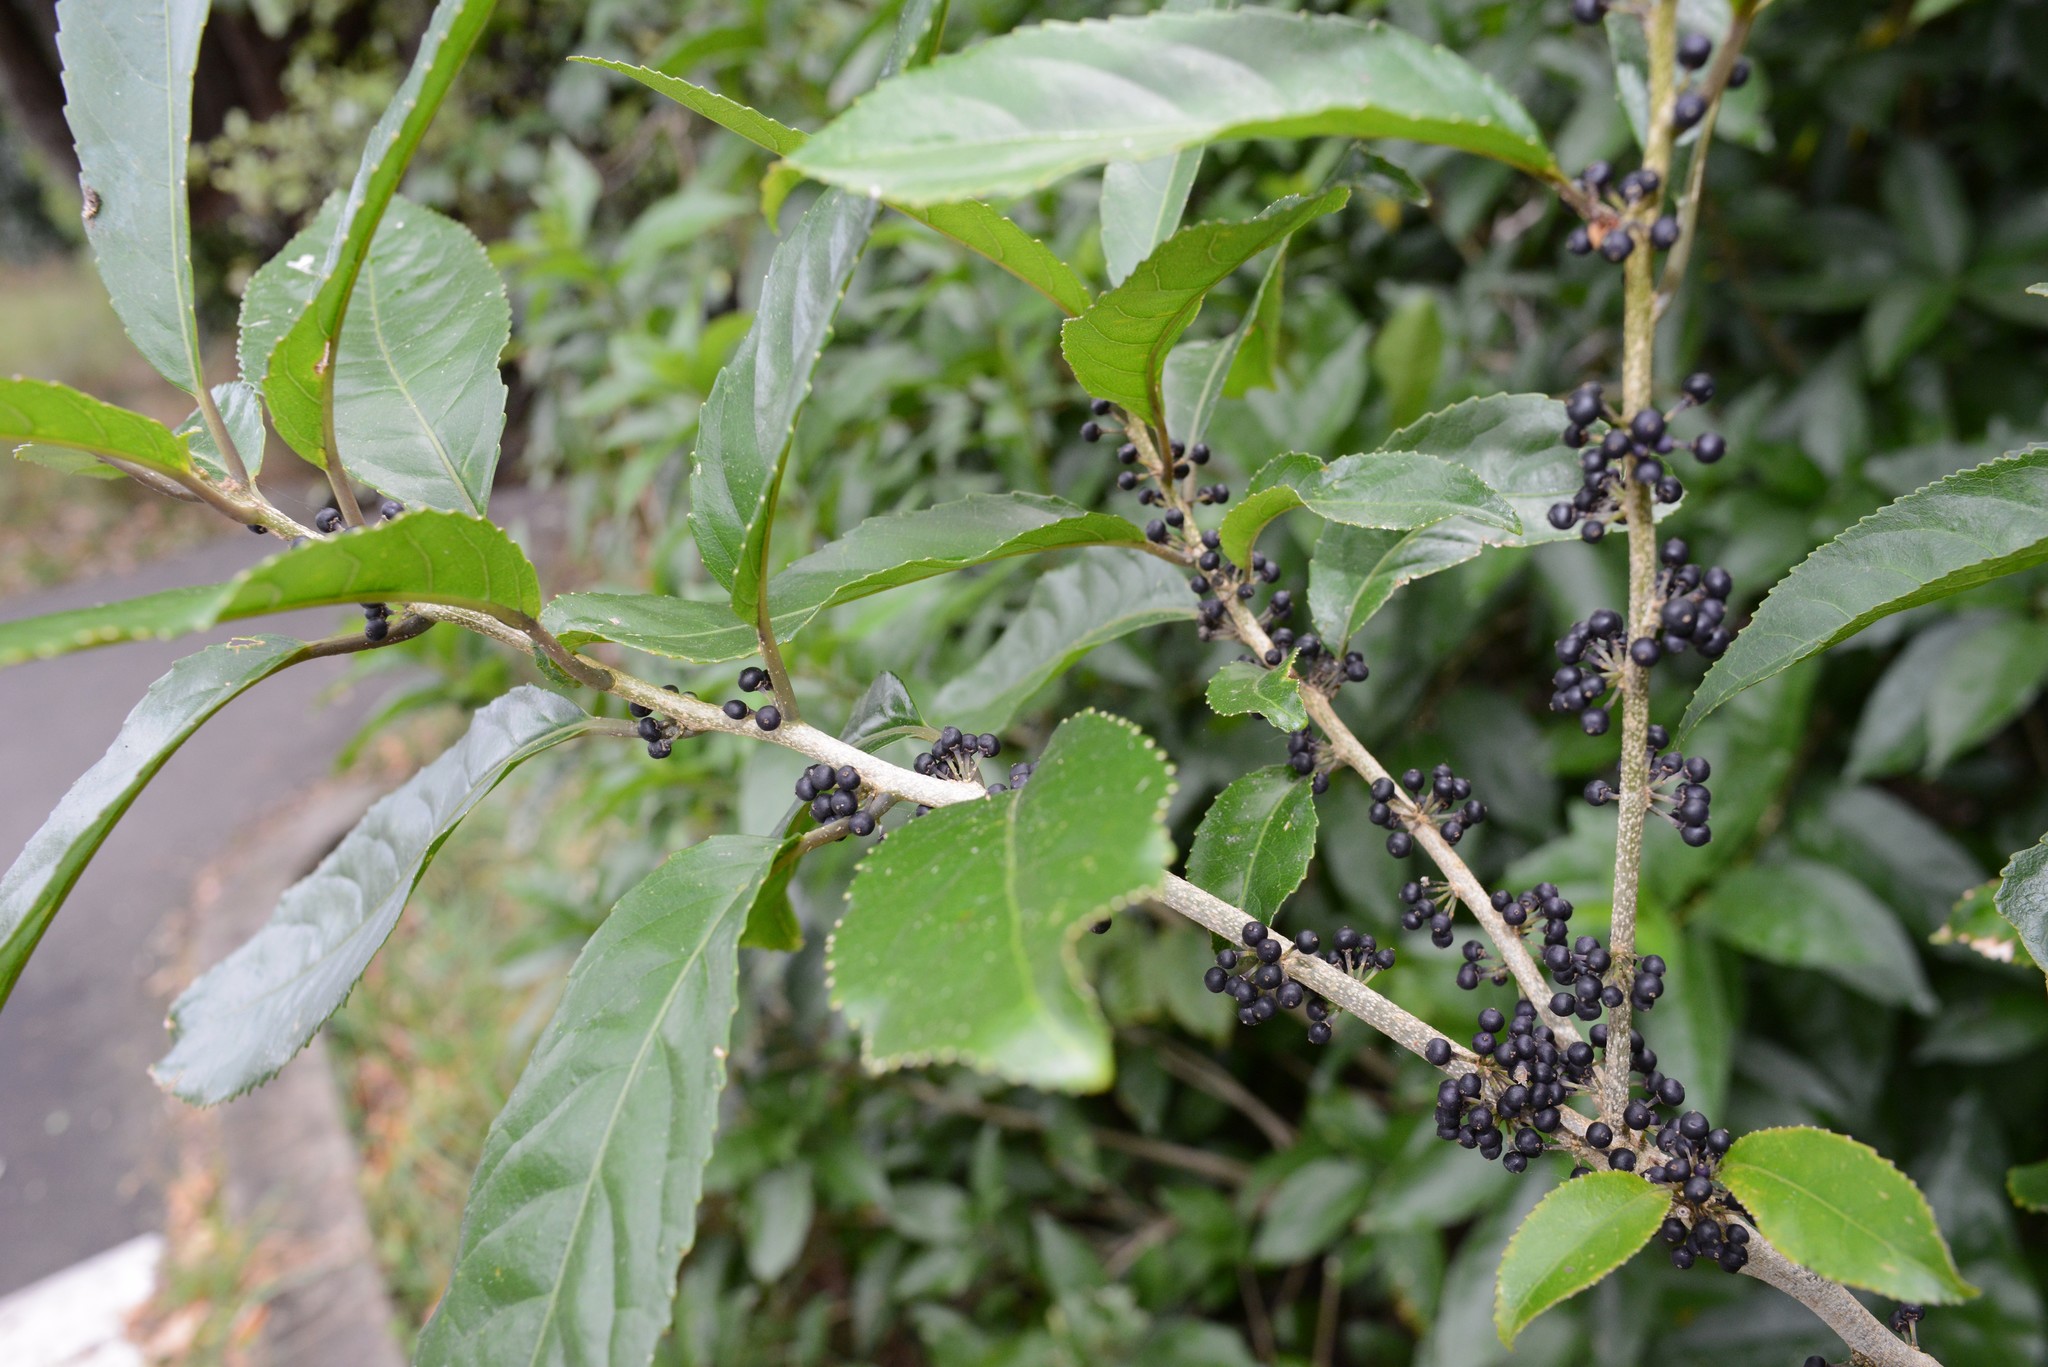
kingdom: Plantae
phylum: Tracheophyta
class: Magnoliopsida
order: Malpighiales
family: Violaceae
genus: Melicytus
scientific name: Melicytus ramiflorus
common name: Mahoe
